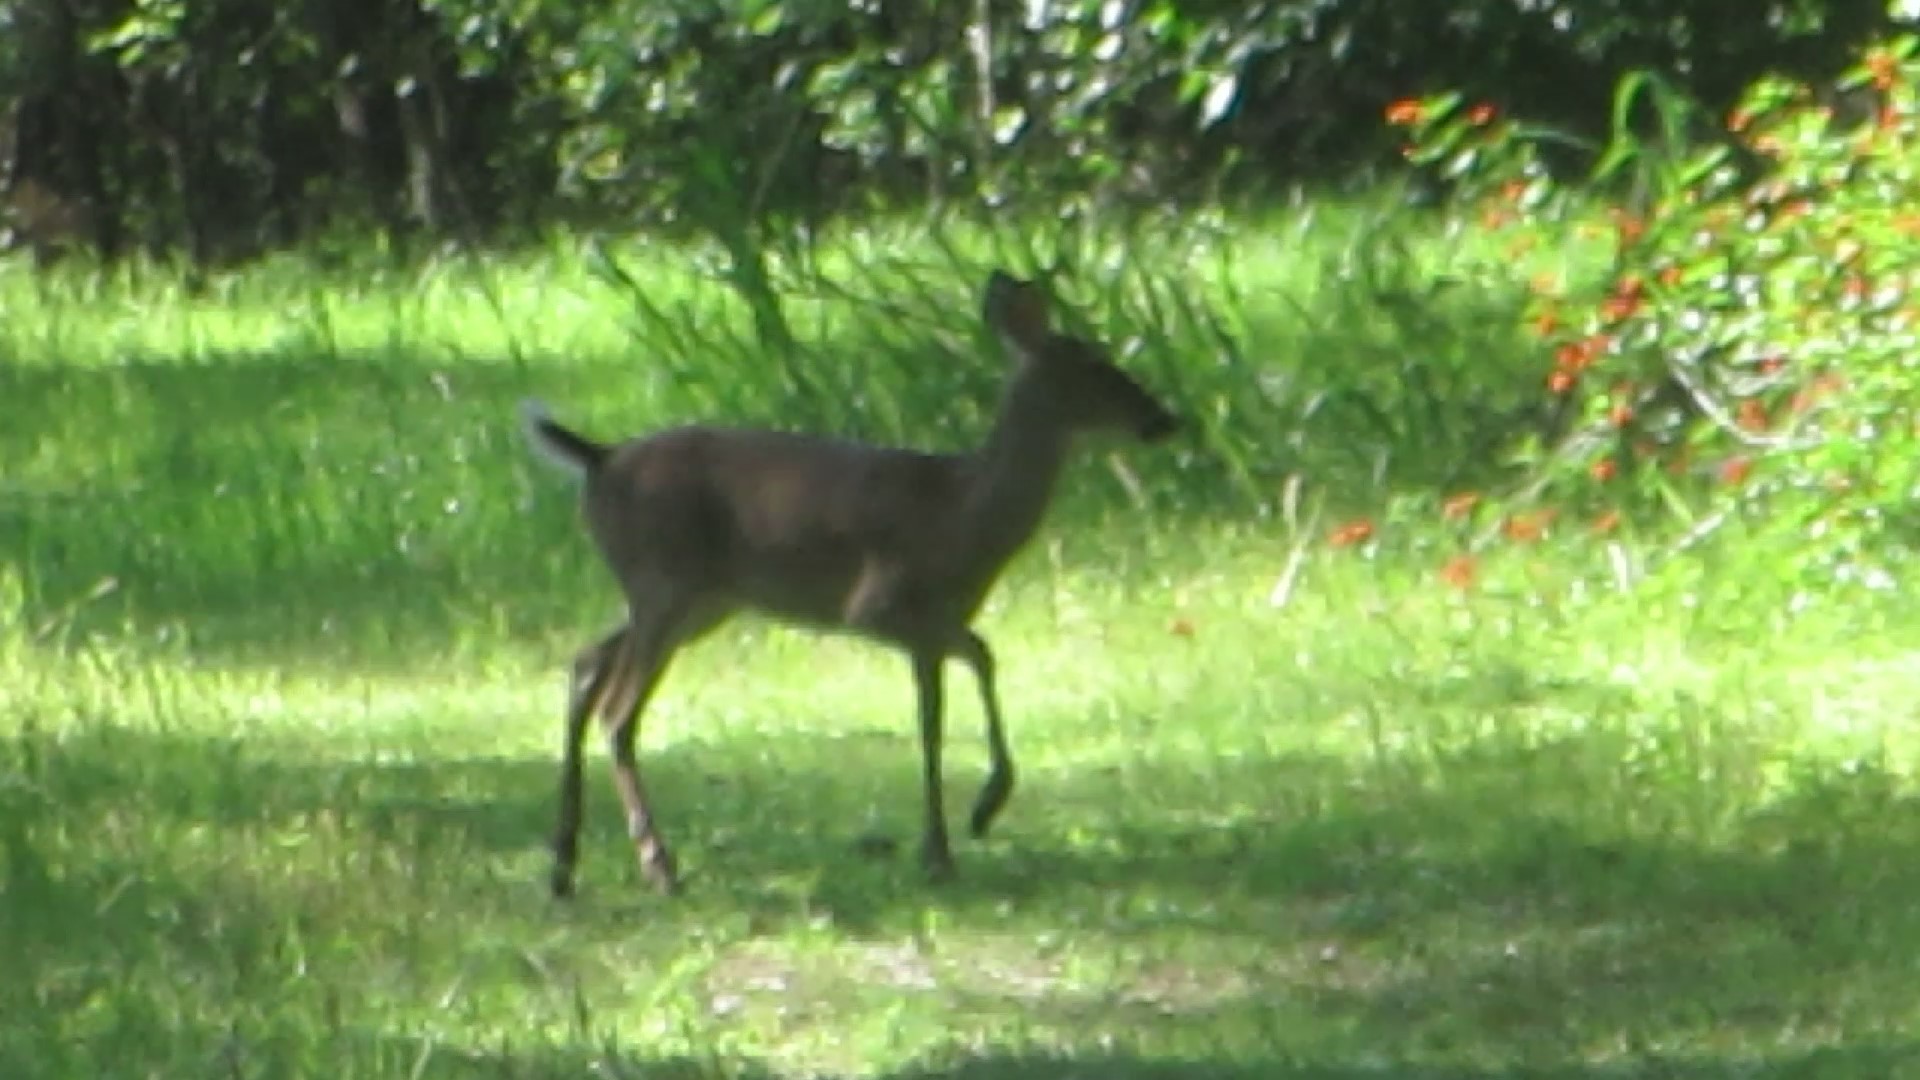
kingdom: Animalia
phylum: Chordata
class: Mammalia
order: Artiodactyla
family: Cervidae
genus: Odocoileus
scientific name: Odocoileus virginianus
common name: White-tailed deer
